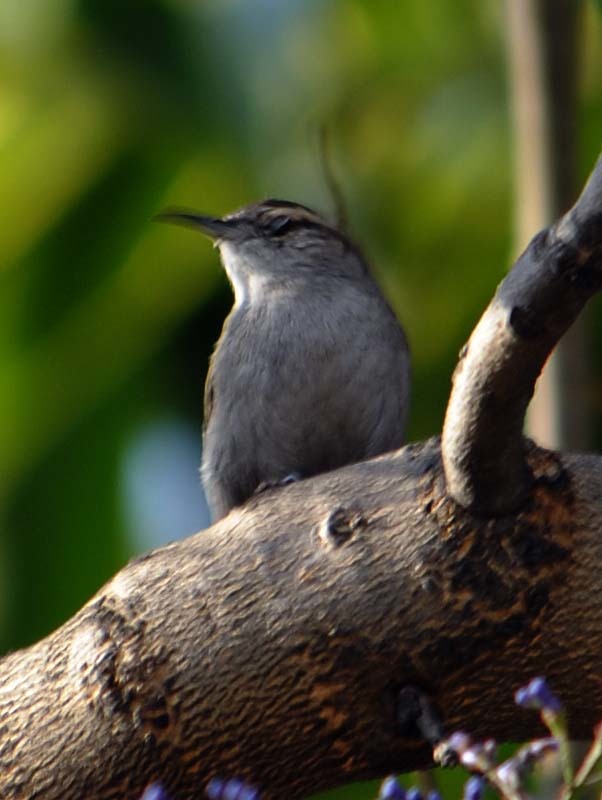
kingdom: Animalia
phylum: Chordata
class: Aves
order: Passeriformes
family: Troglodytidae
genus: Thryomanes
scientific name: Thryomanes bewickii
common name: Bewick's wren
